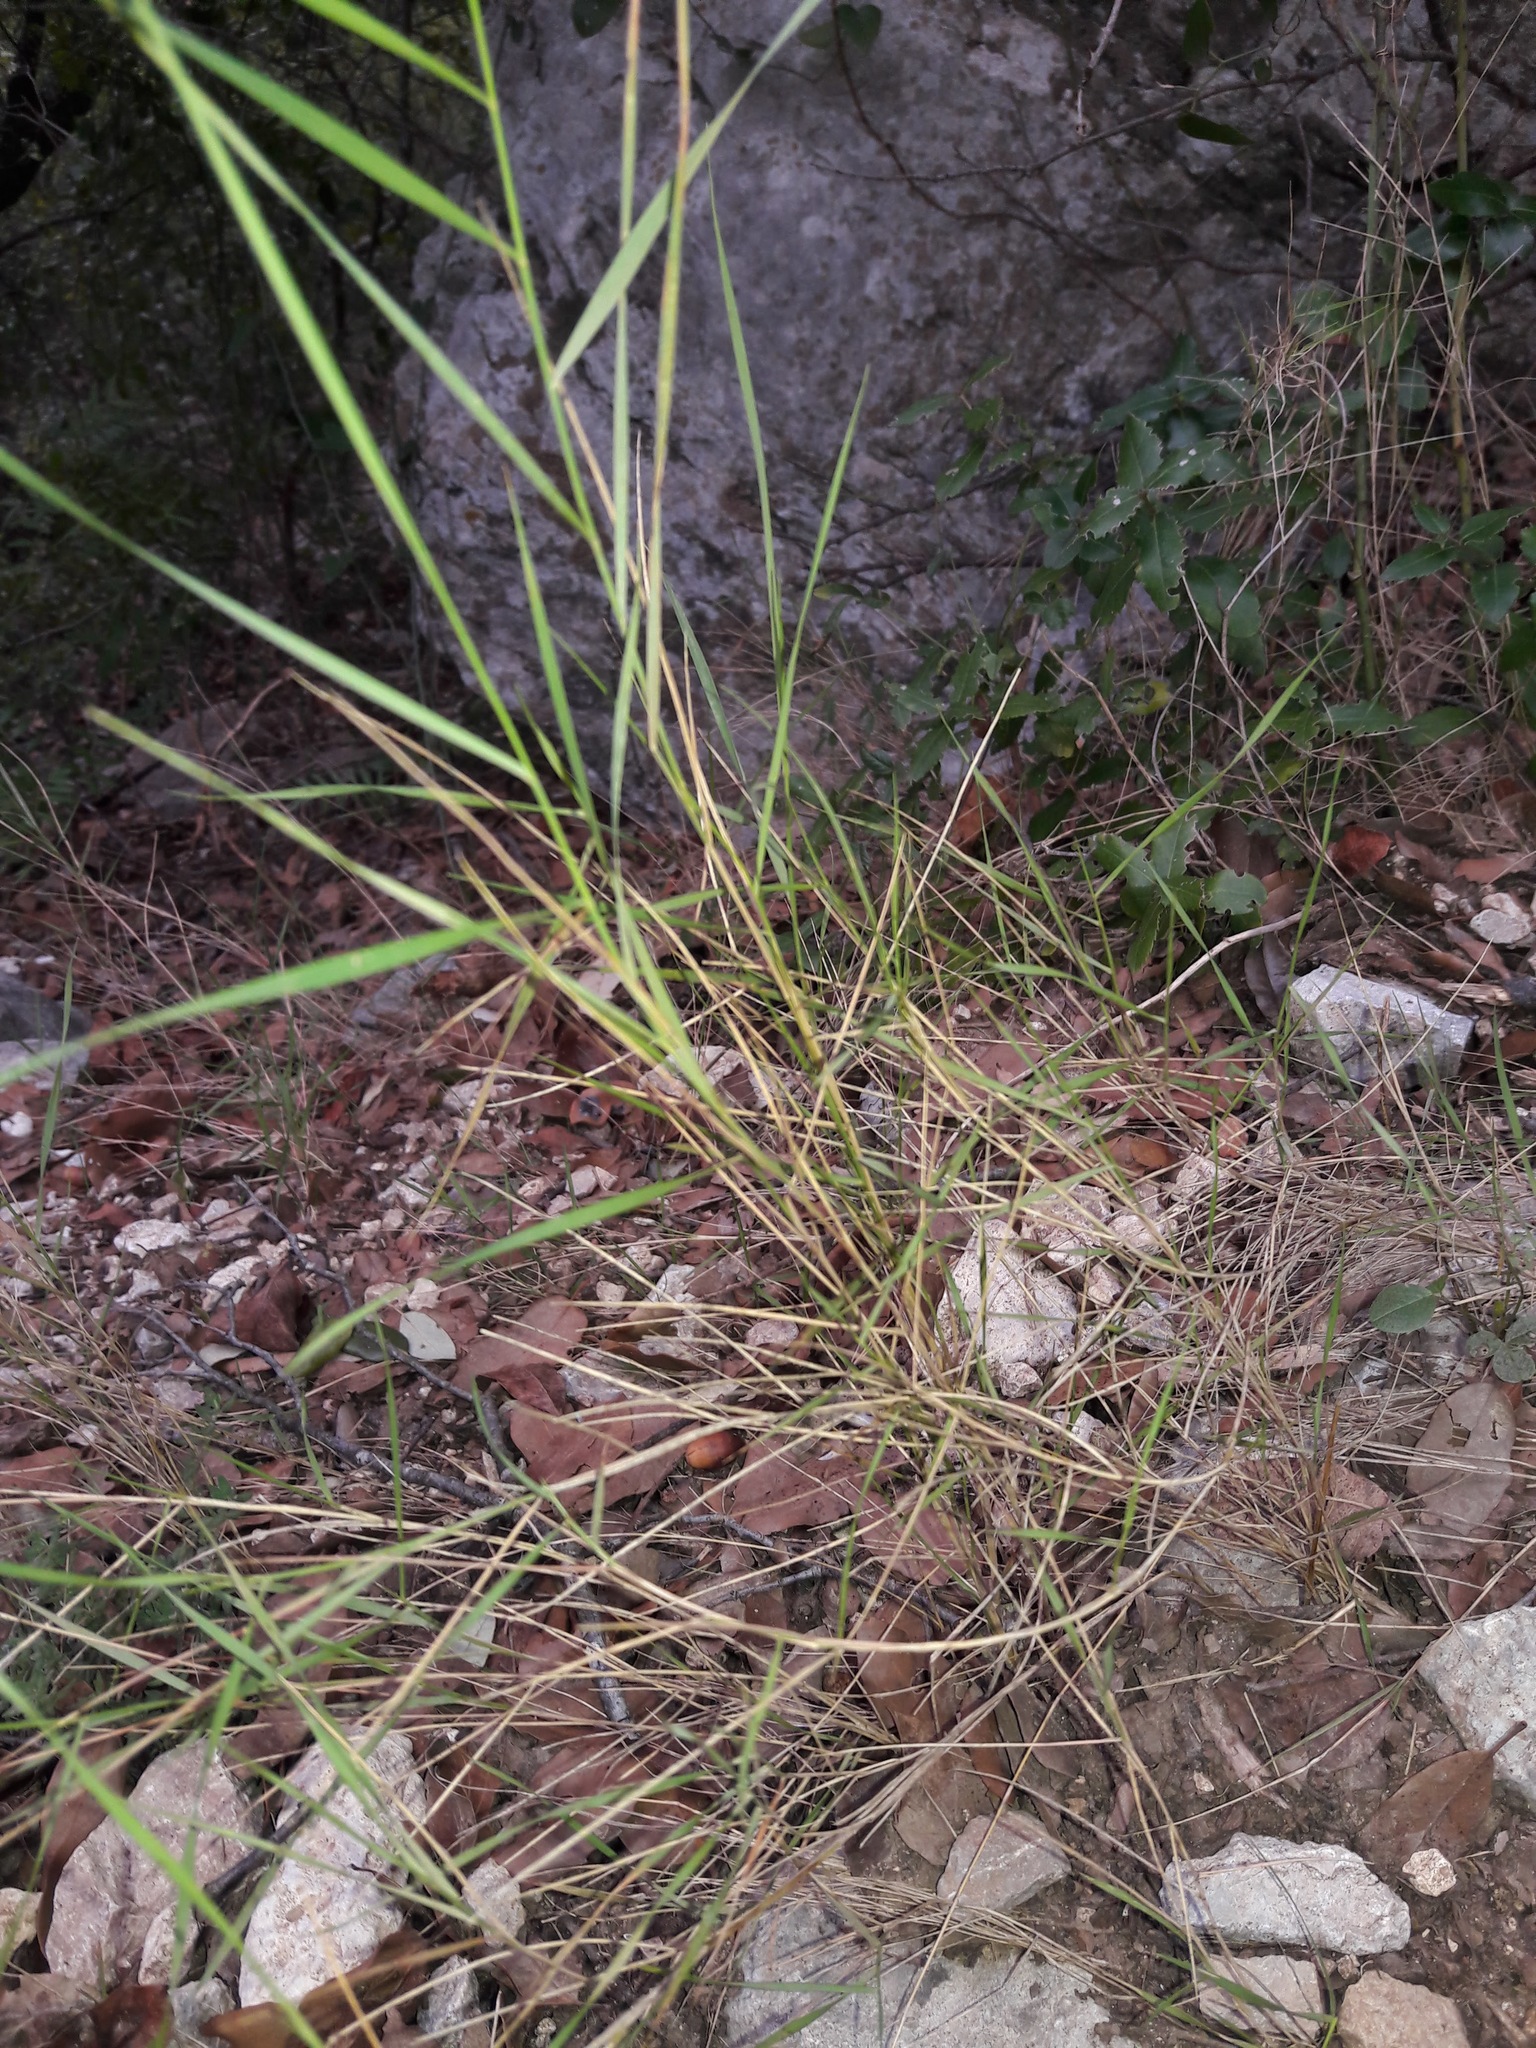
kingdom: Plantae
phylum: Tracheophyta
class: Liliopsida
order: Poales
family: Poaceae
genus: Brachypodium
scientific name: Brachypodium retusum
